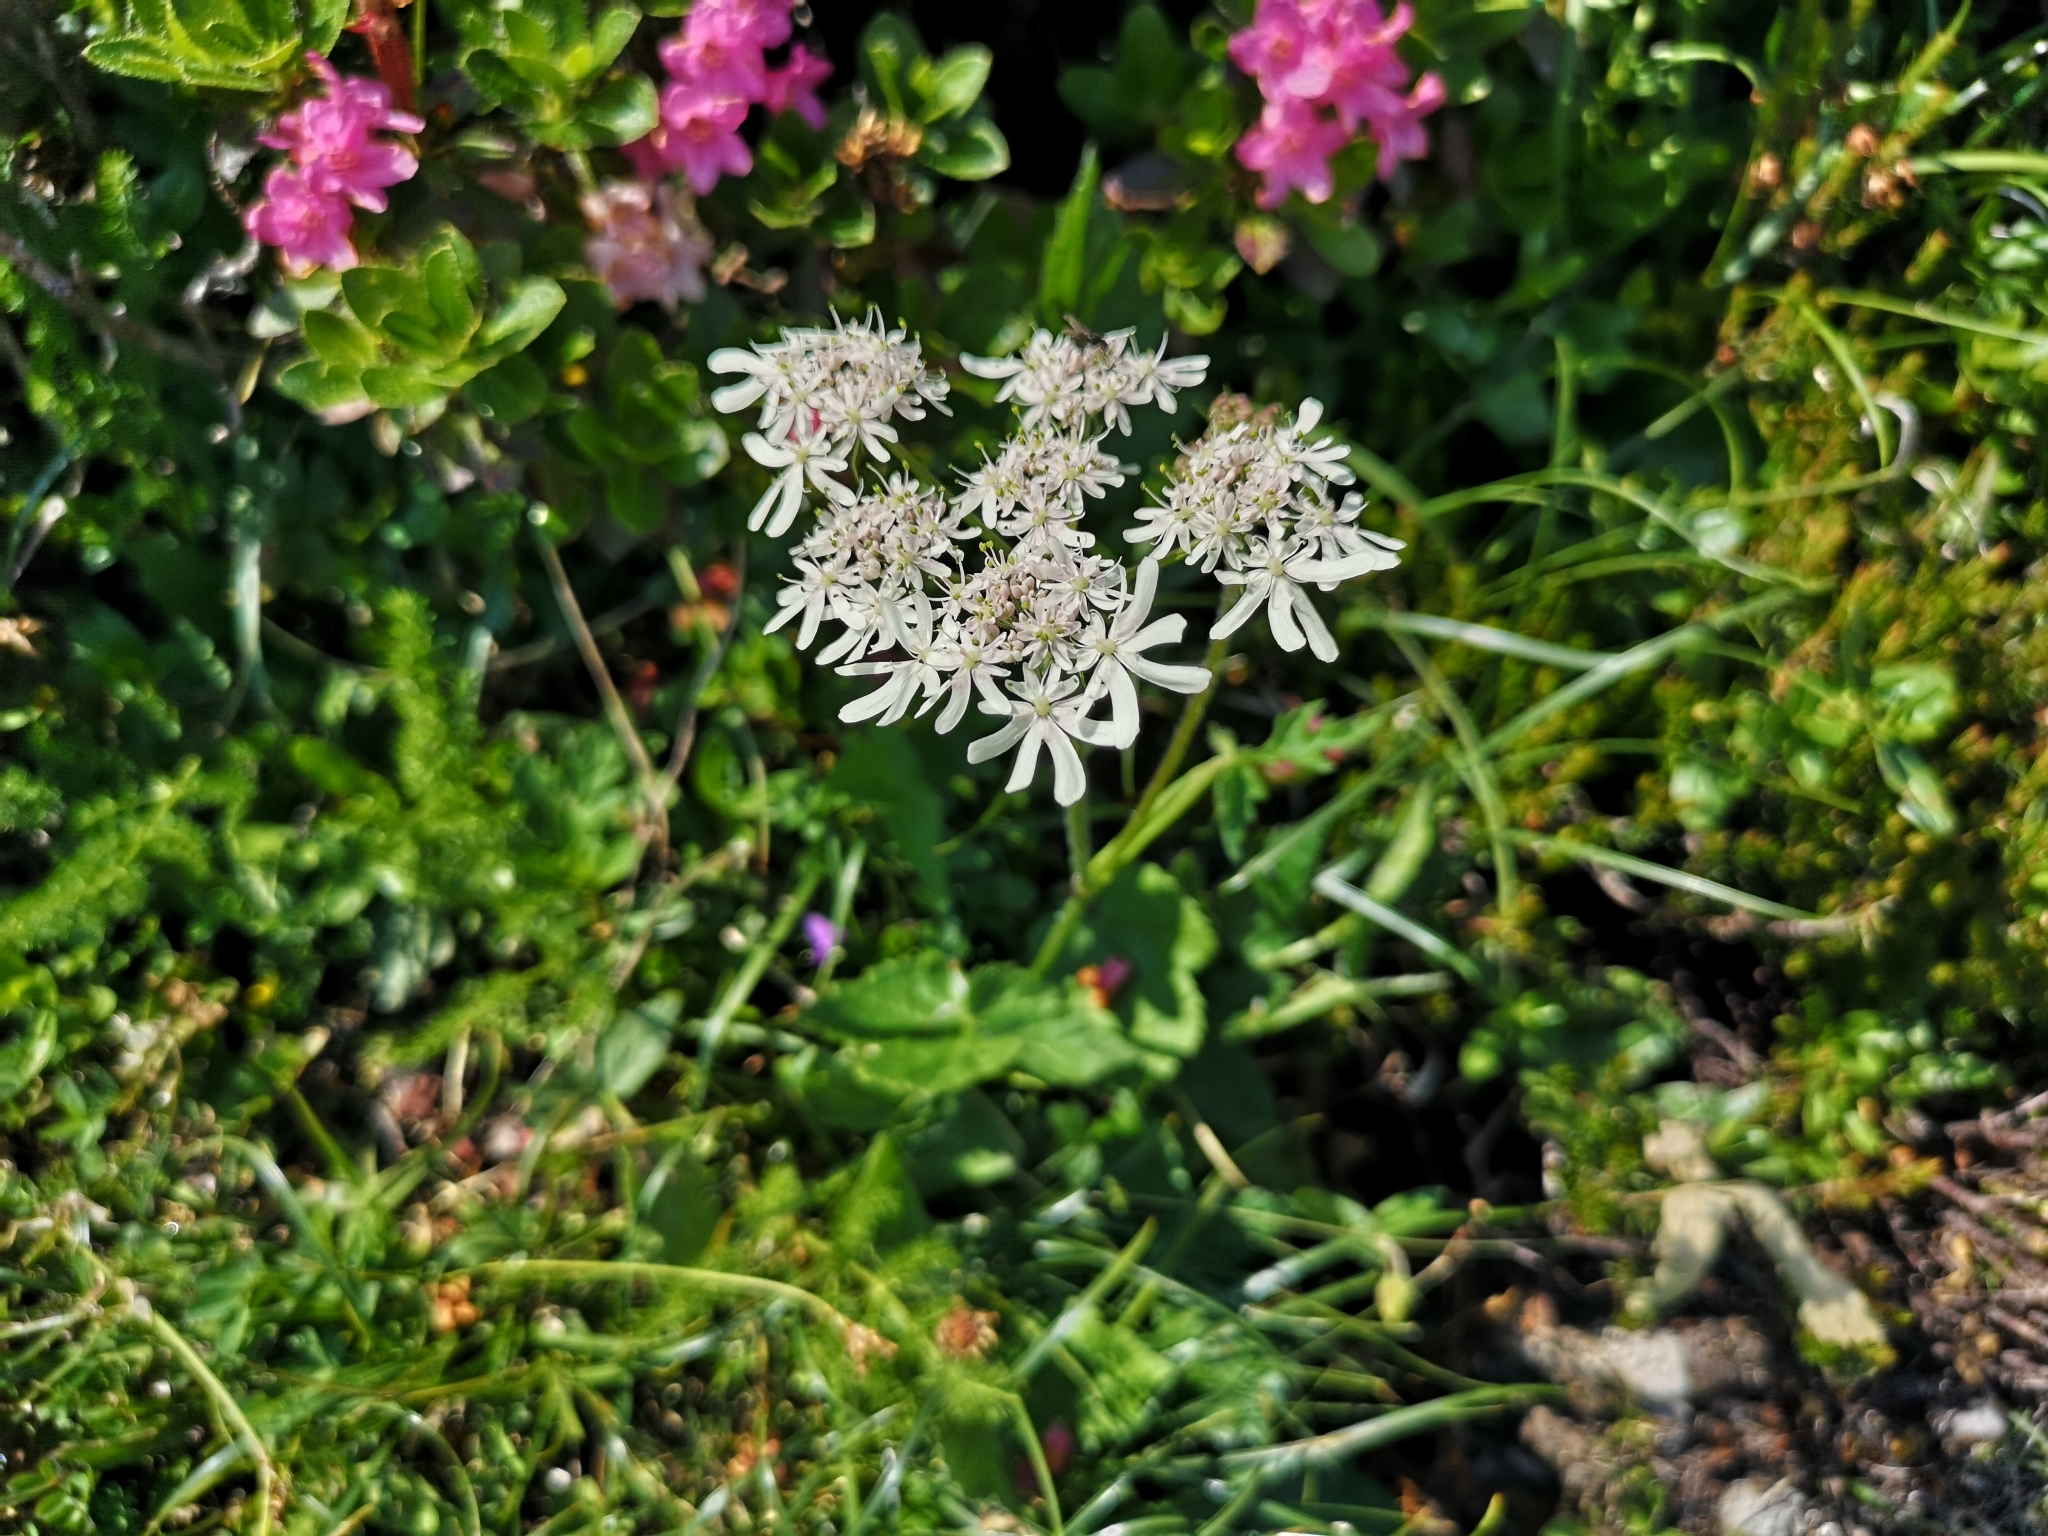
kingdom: Plantae
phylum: Tracheophyta
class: Magnoliopsida
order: Apiales
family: Apiaceae
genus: Heracleum
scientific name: Heracleum austriacum
